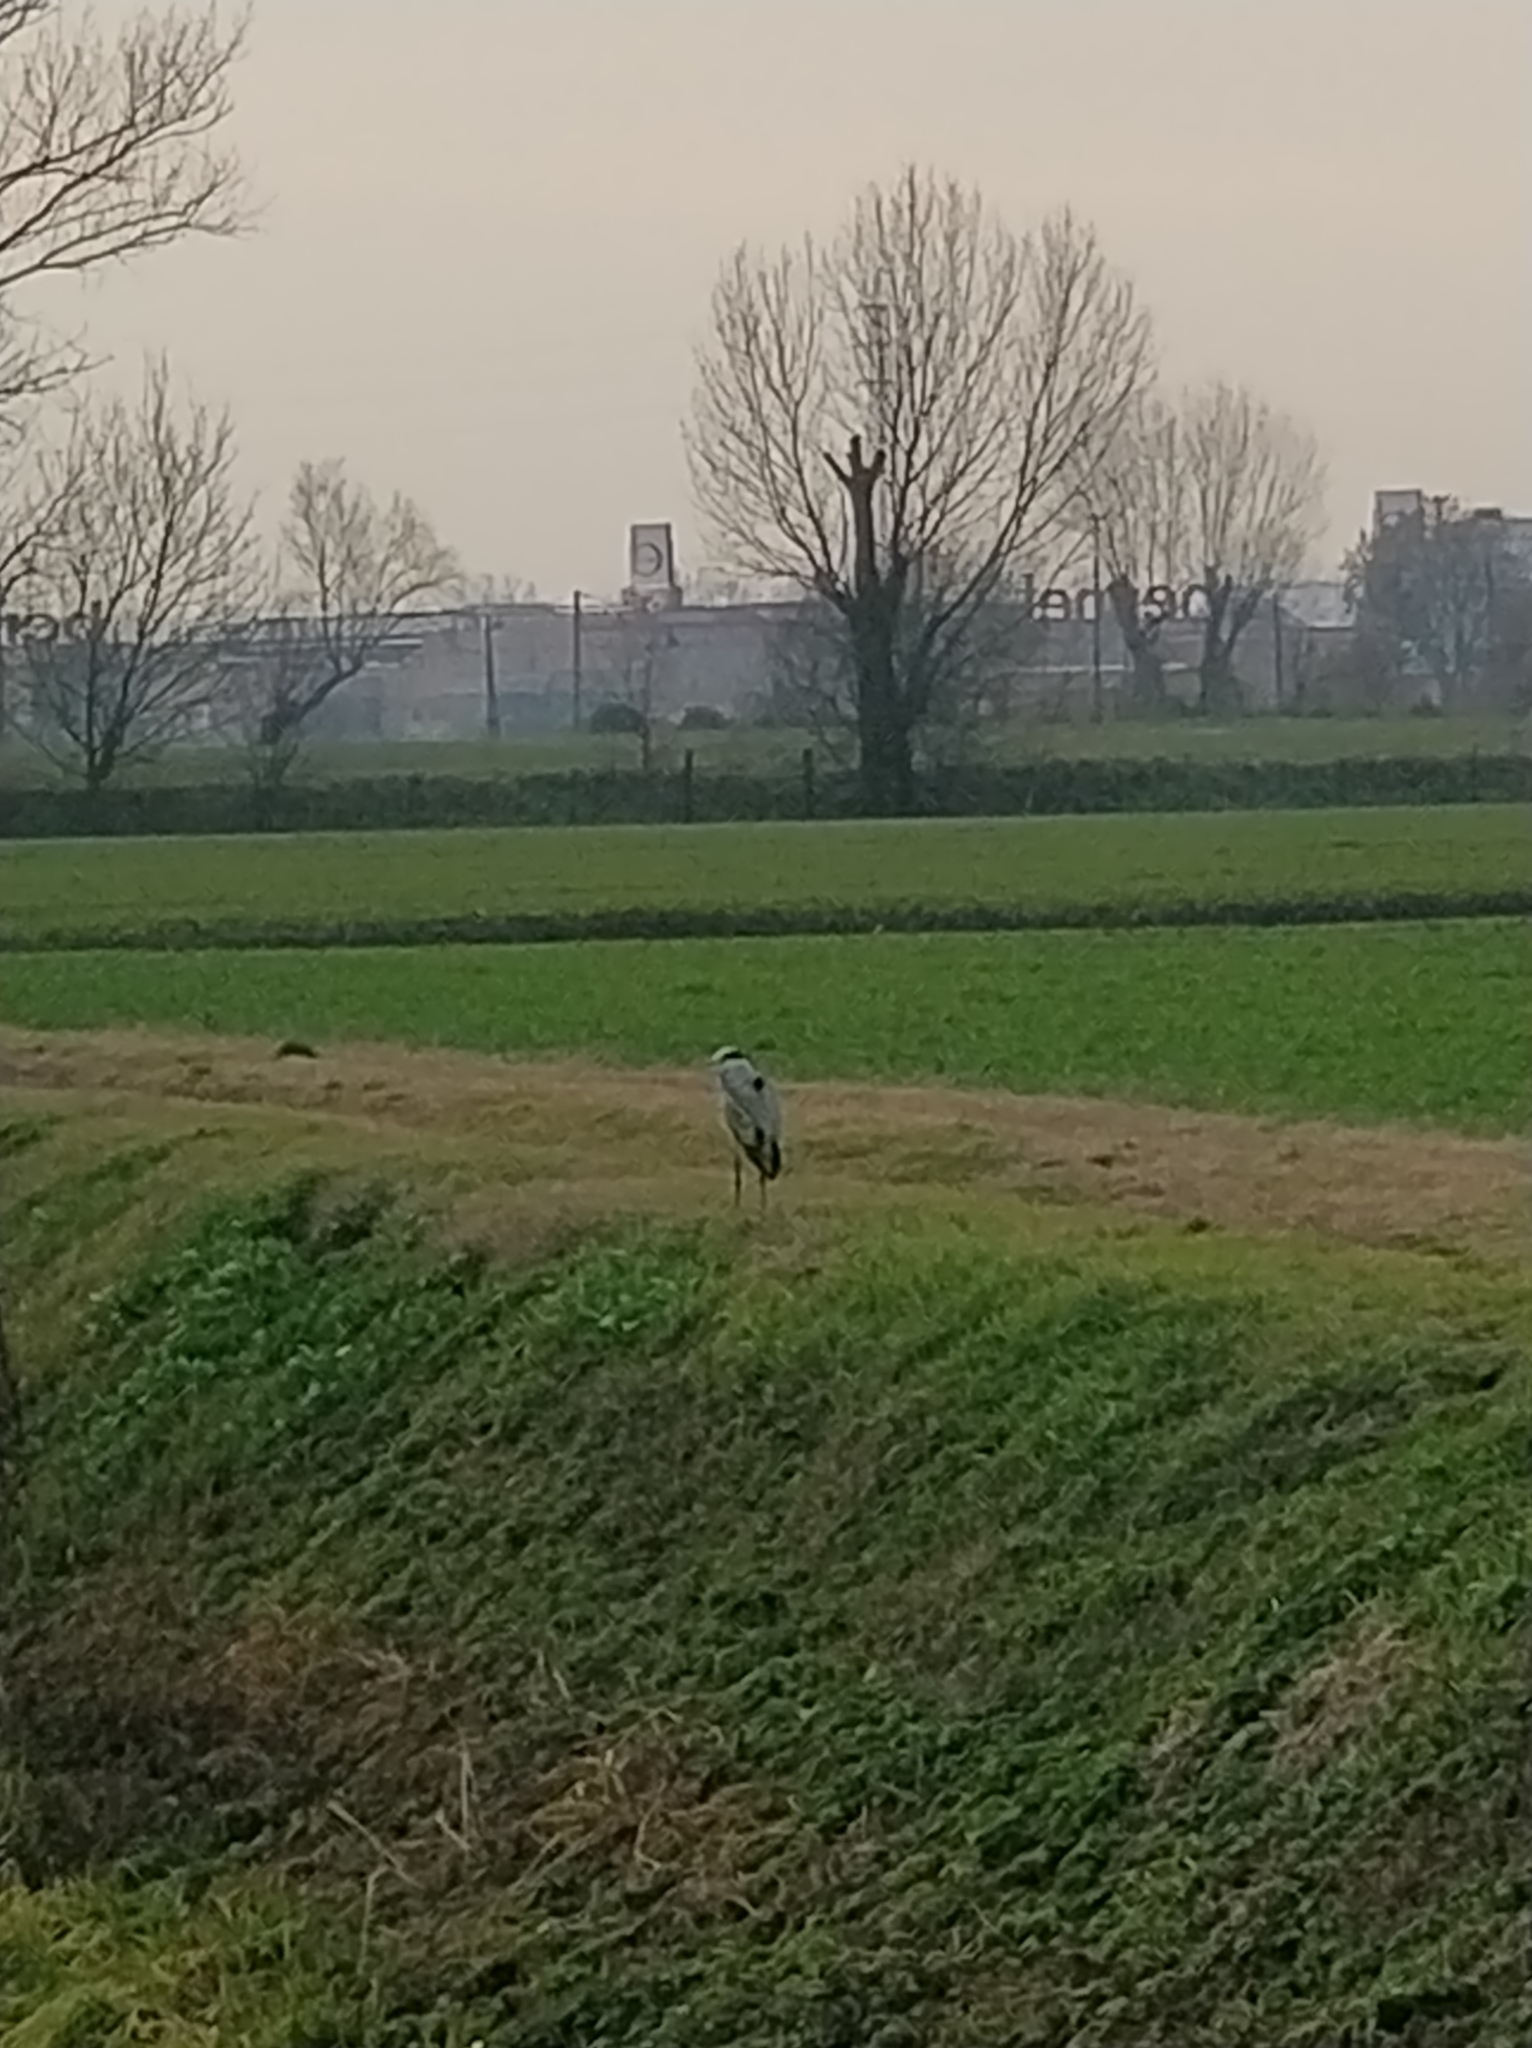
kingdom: Animalia
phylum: Chordata
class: Aves
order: Pelecaniformes
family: Ardeidae
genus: Ardea
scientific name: Ardea cinerea
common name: Grey heron
